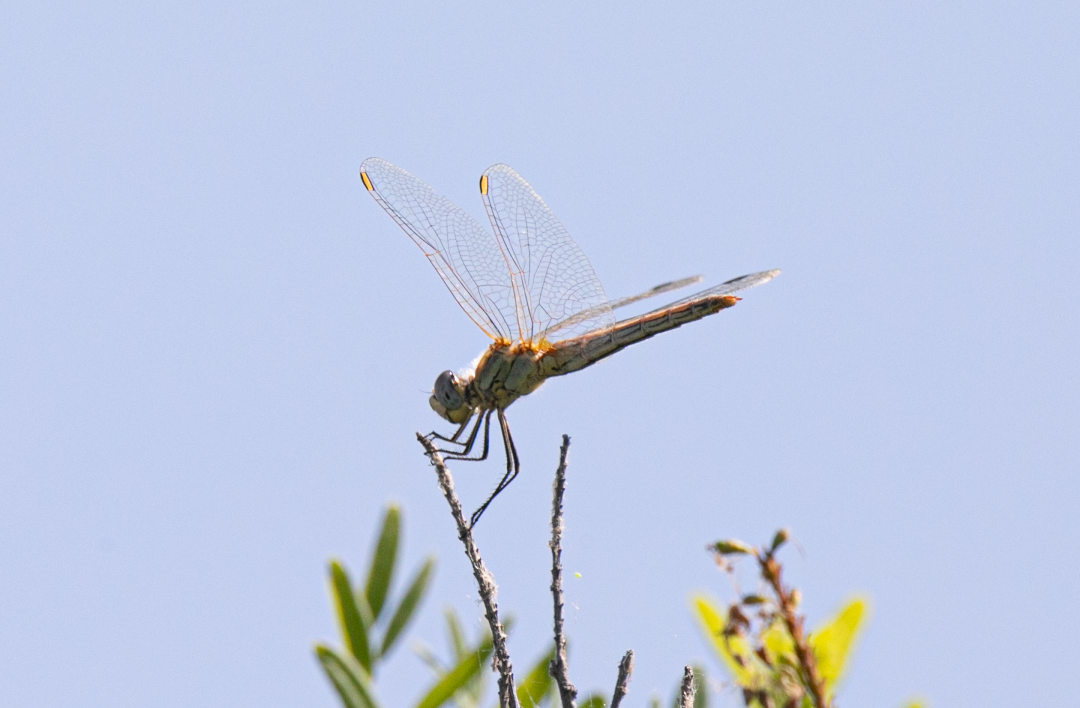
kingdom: Animalia
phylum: Arthropoda
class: Insecta
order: Odonata
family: Libellulidae
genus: Sympetrum
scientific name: Sympetrum fonscolombii
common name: Red-veined darter
